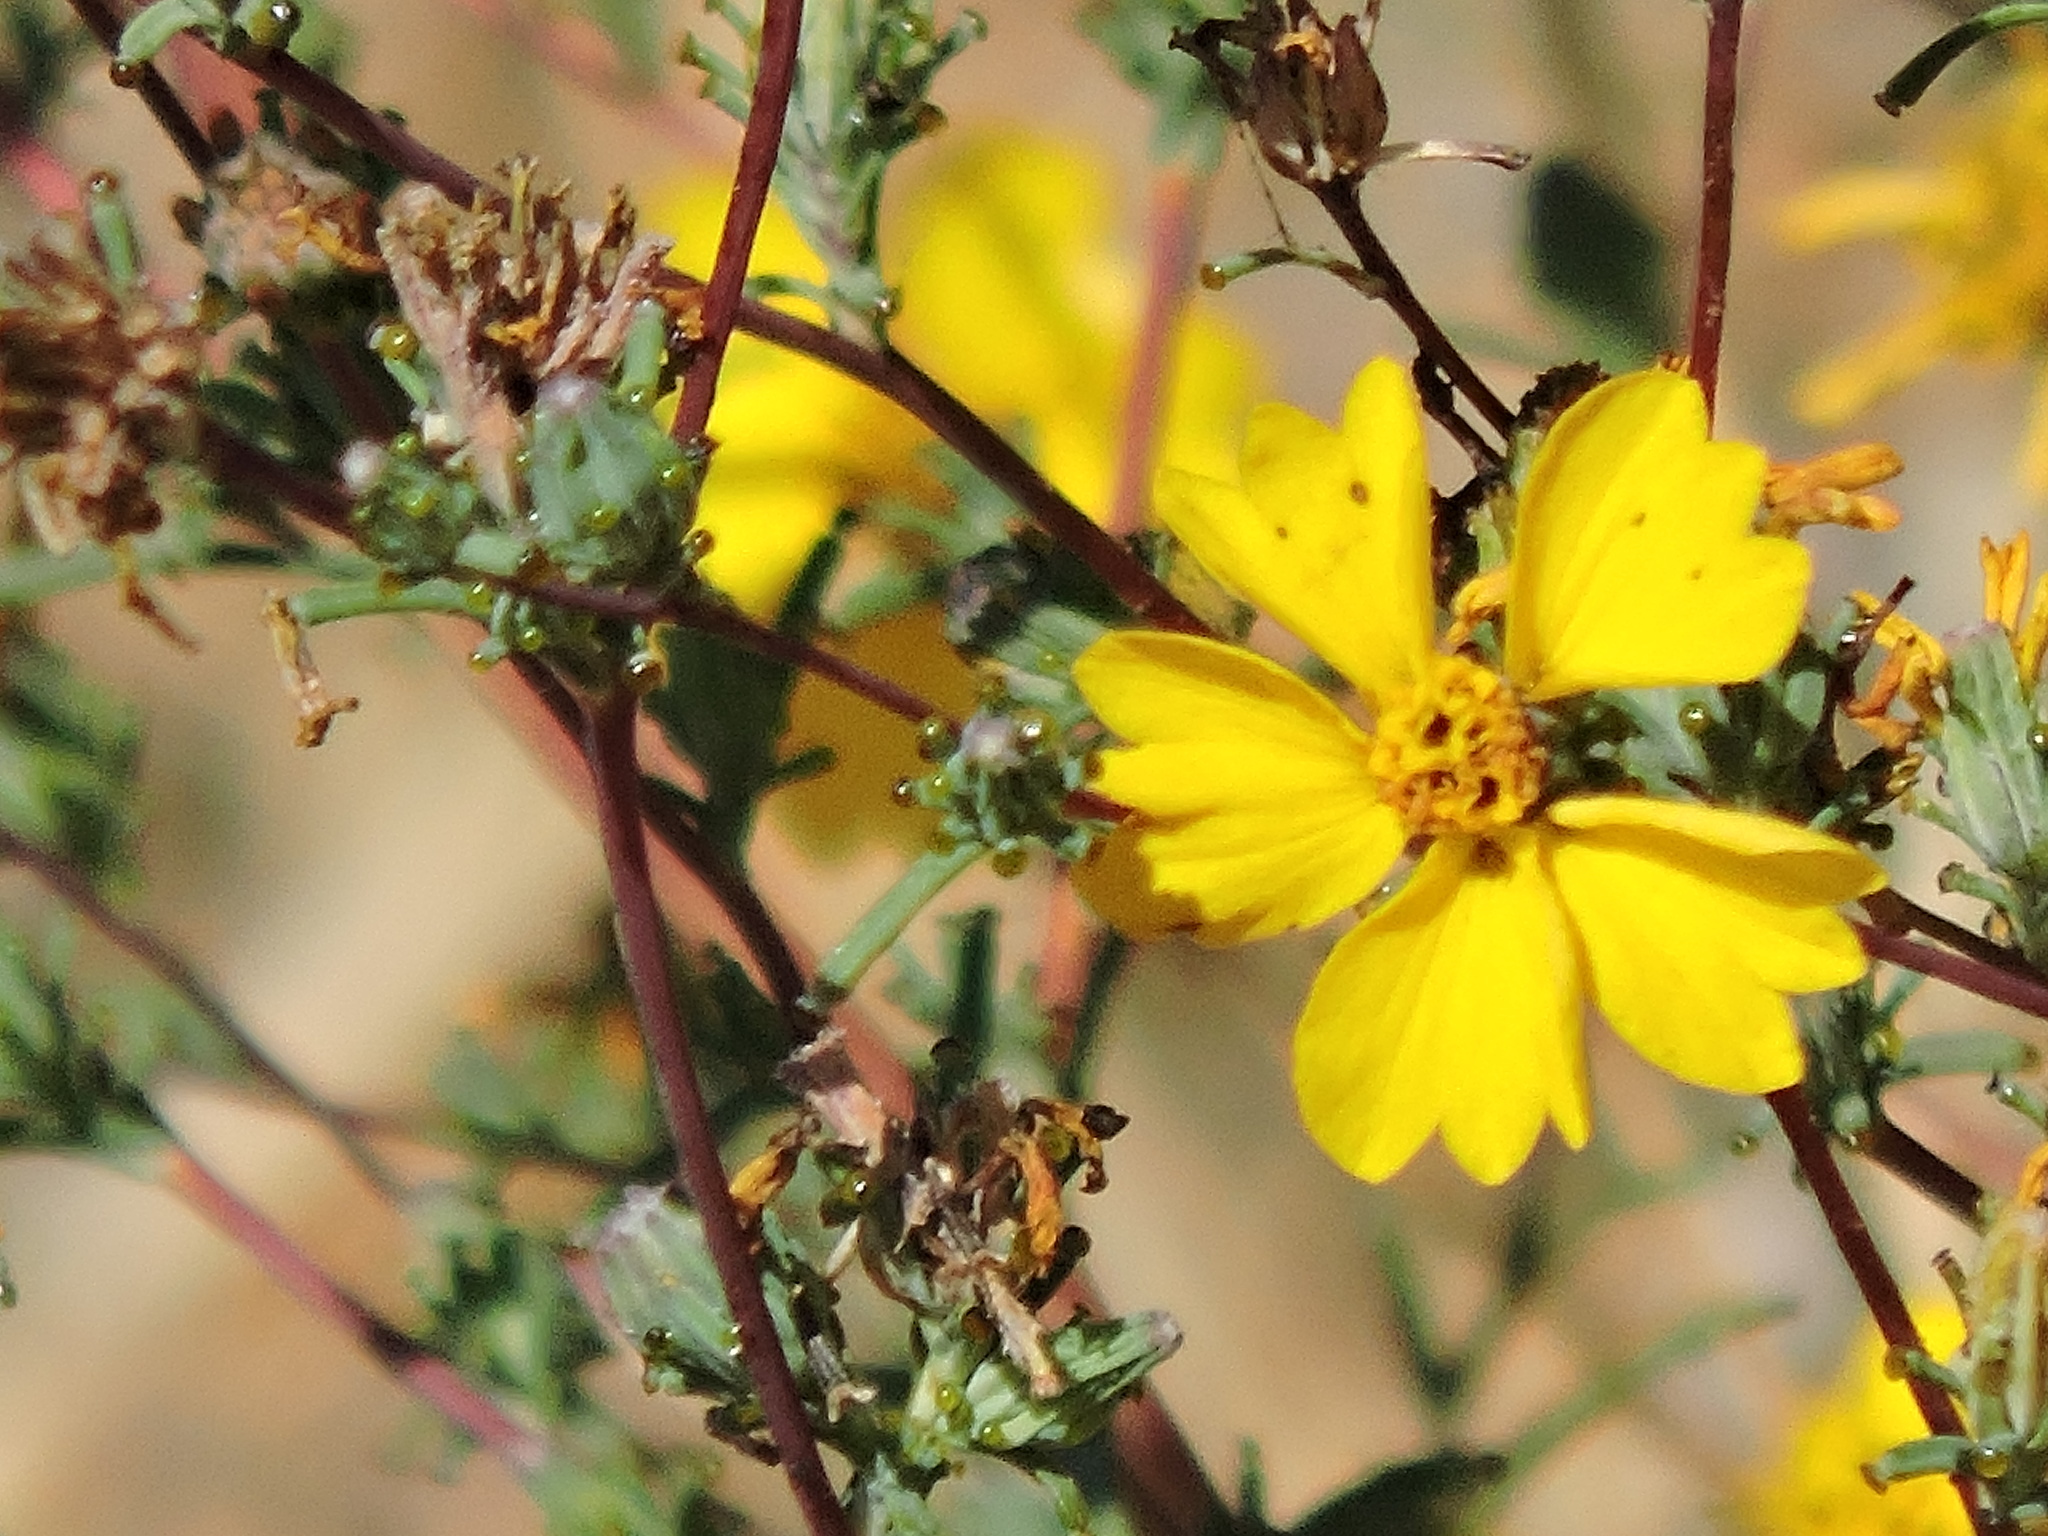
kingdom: Plantae
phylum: Tracheophyta
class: Magnoliopsida
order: Asterales
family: Asteraceae
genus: Calycadenia
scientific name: Calycadenia truncata
